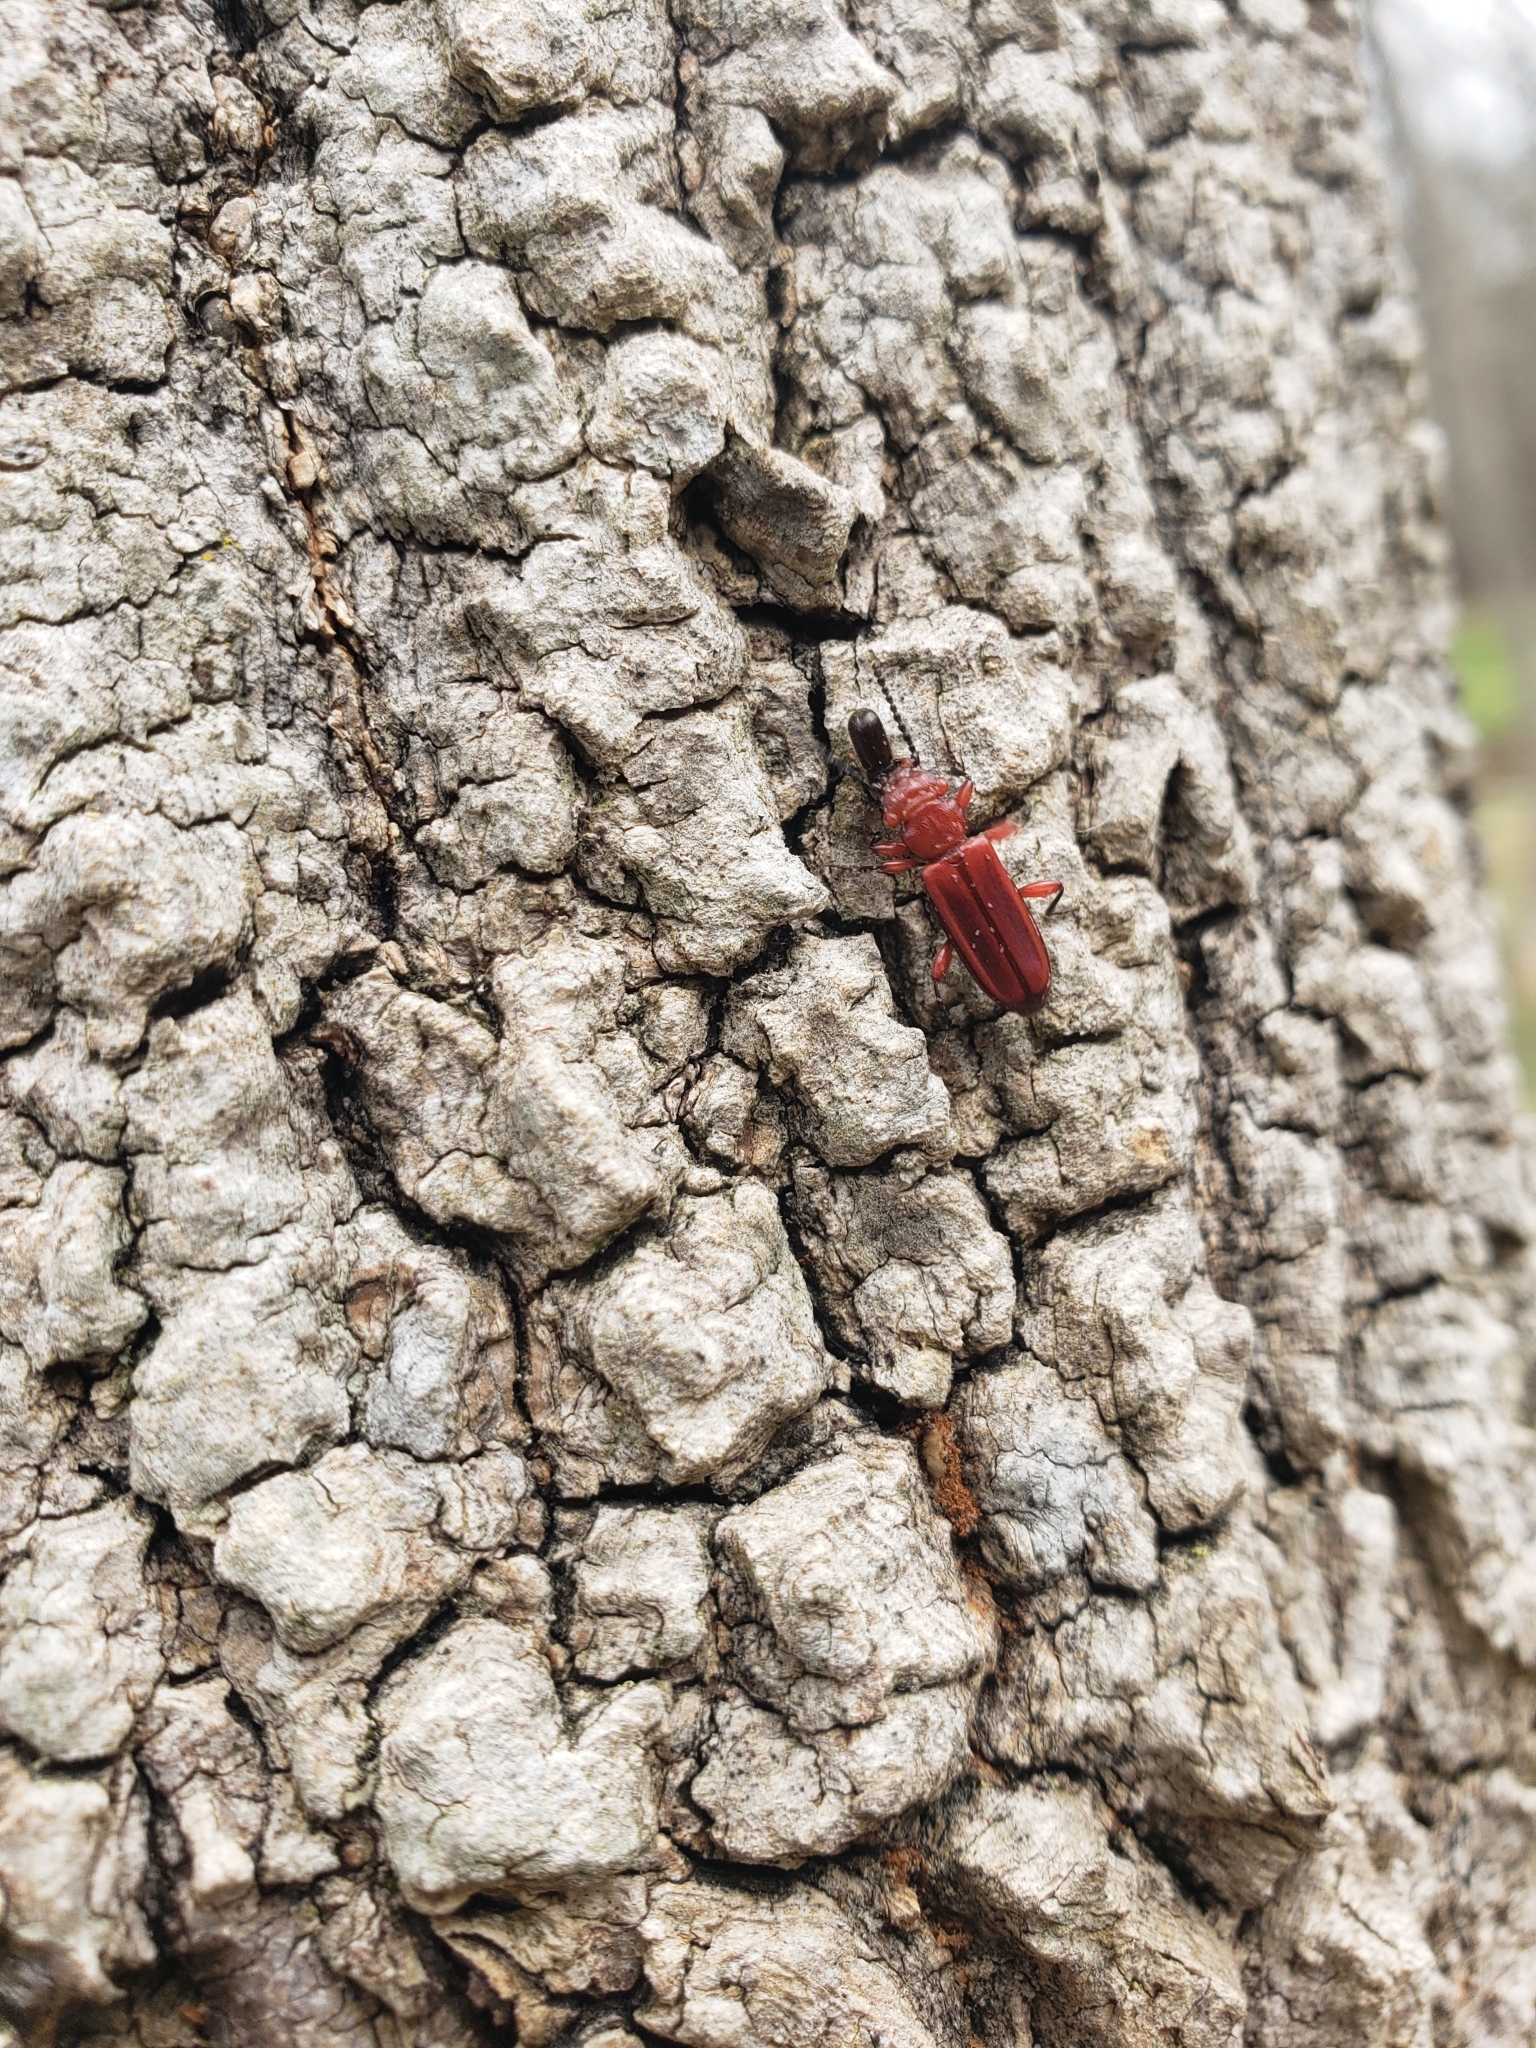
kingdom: Animalia
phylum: Arthropoda
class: Insecta
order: Coleoptera
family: Cucujidae
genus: Cucujus
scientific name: Cucujus clavipes
